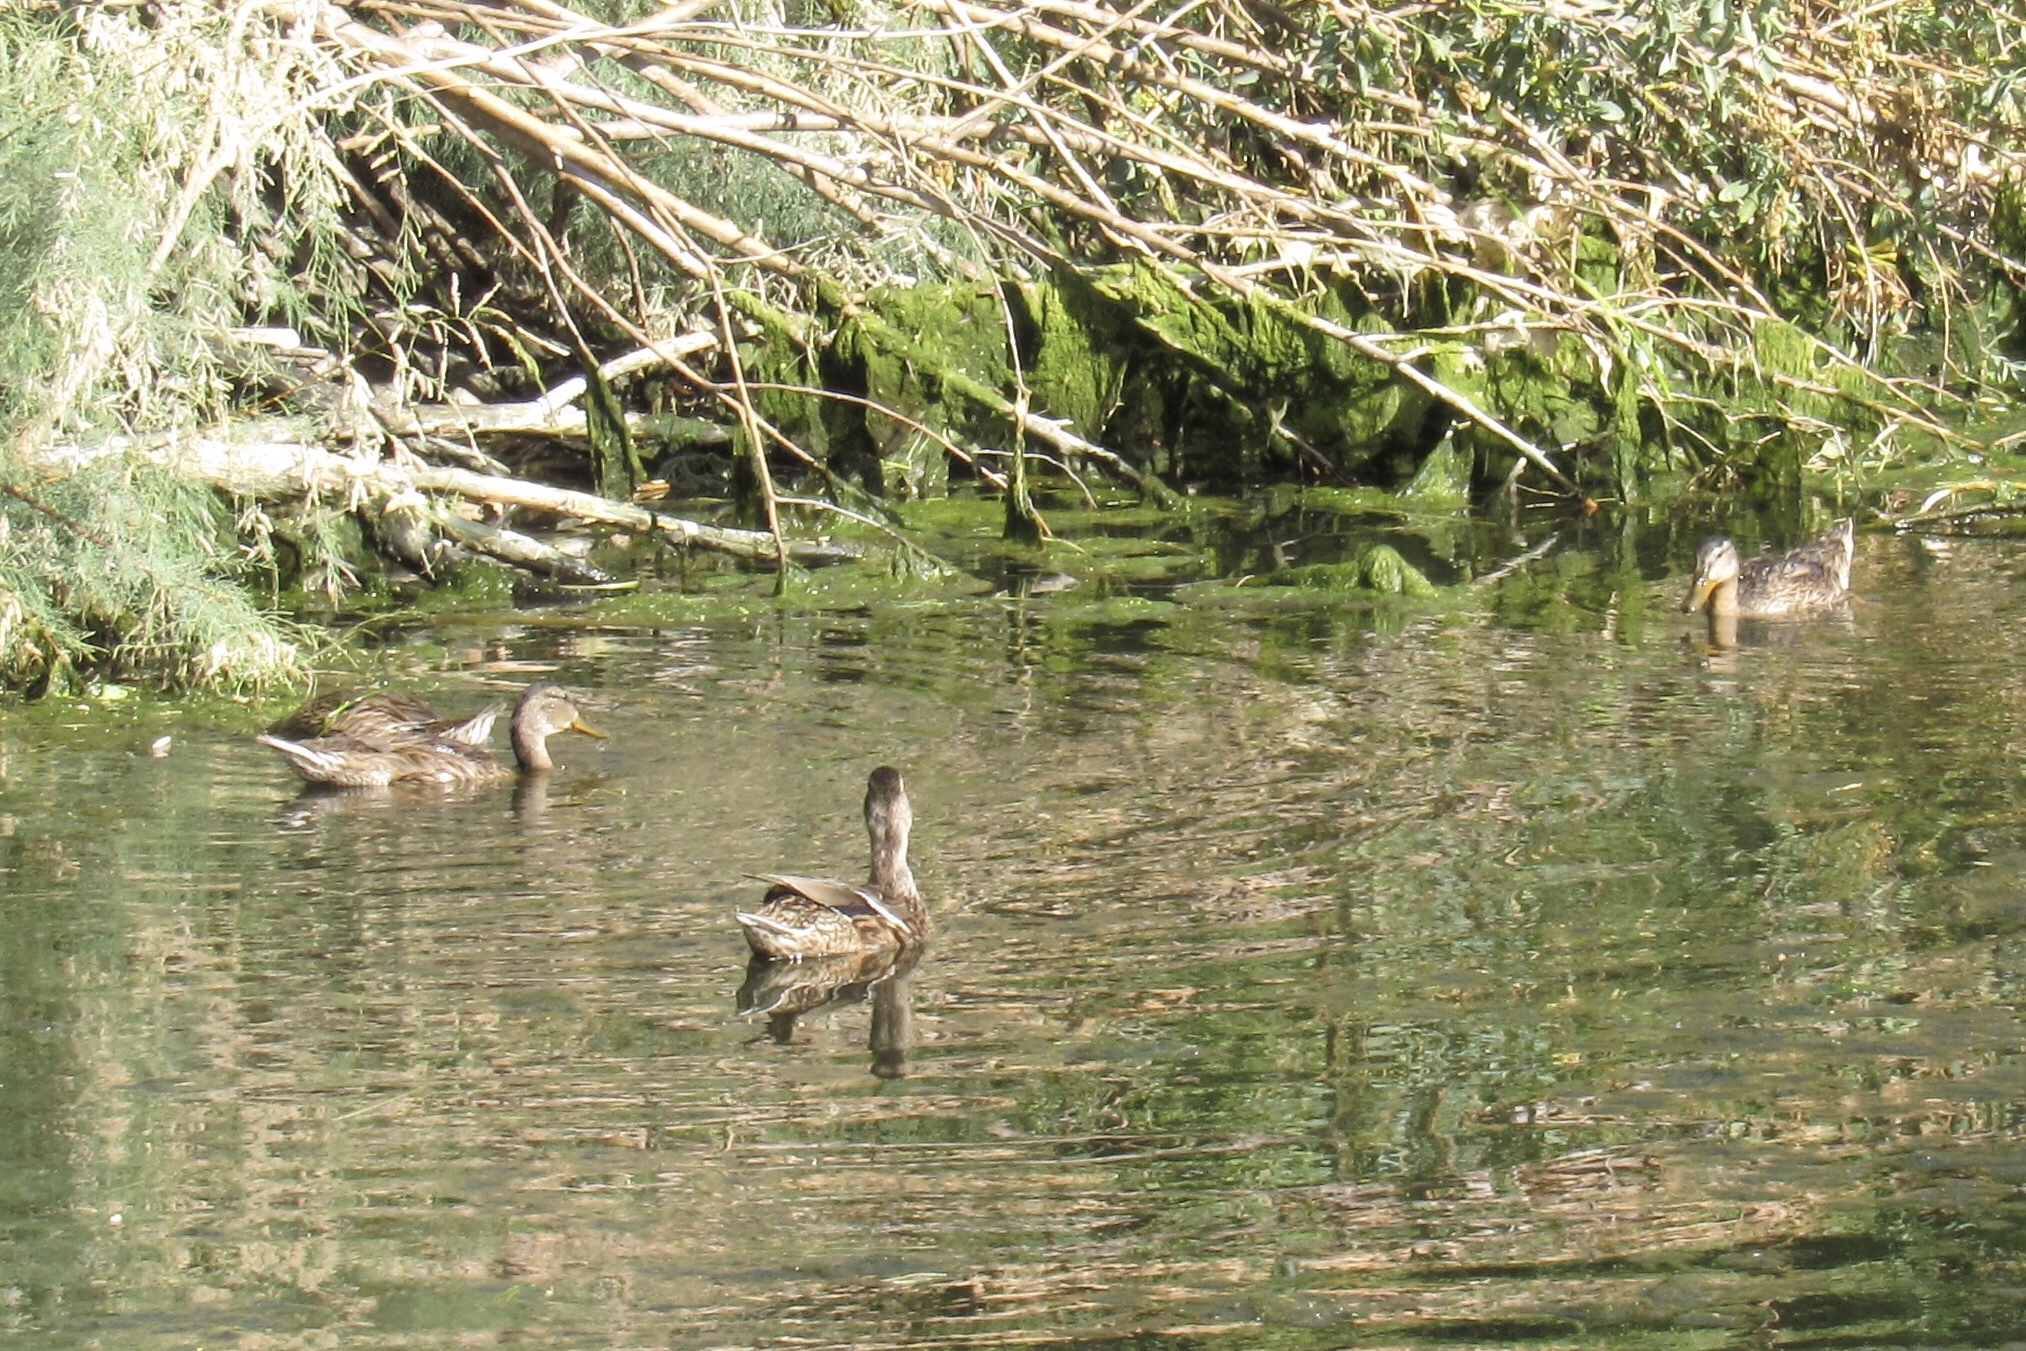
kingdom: Animalia
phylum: Chordata
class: Aves
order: Anseriformes
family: Anatidae
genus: Anas
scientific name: Anas platyrhynchos
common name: Mallard
